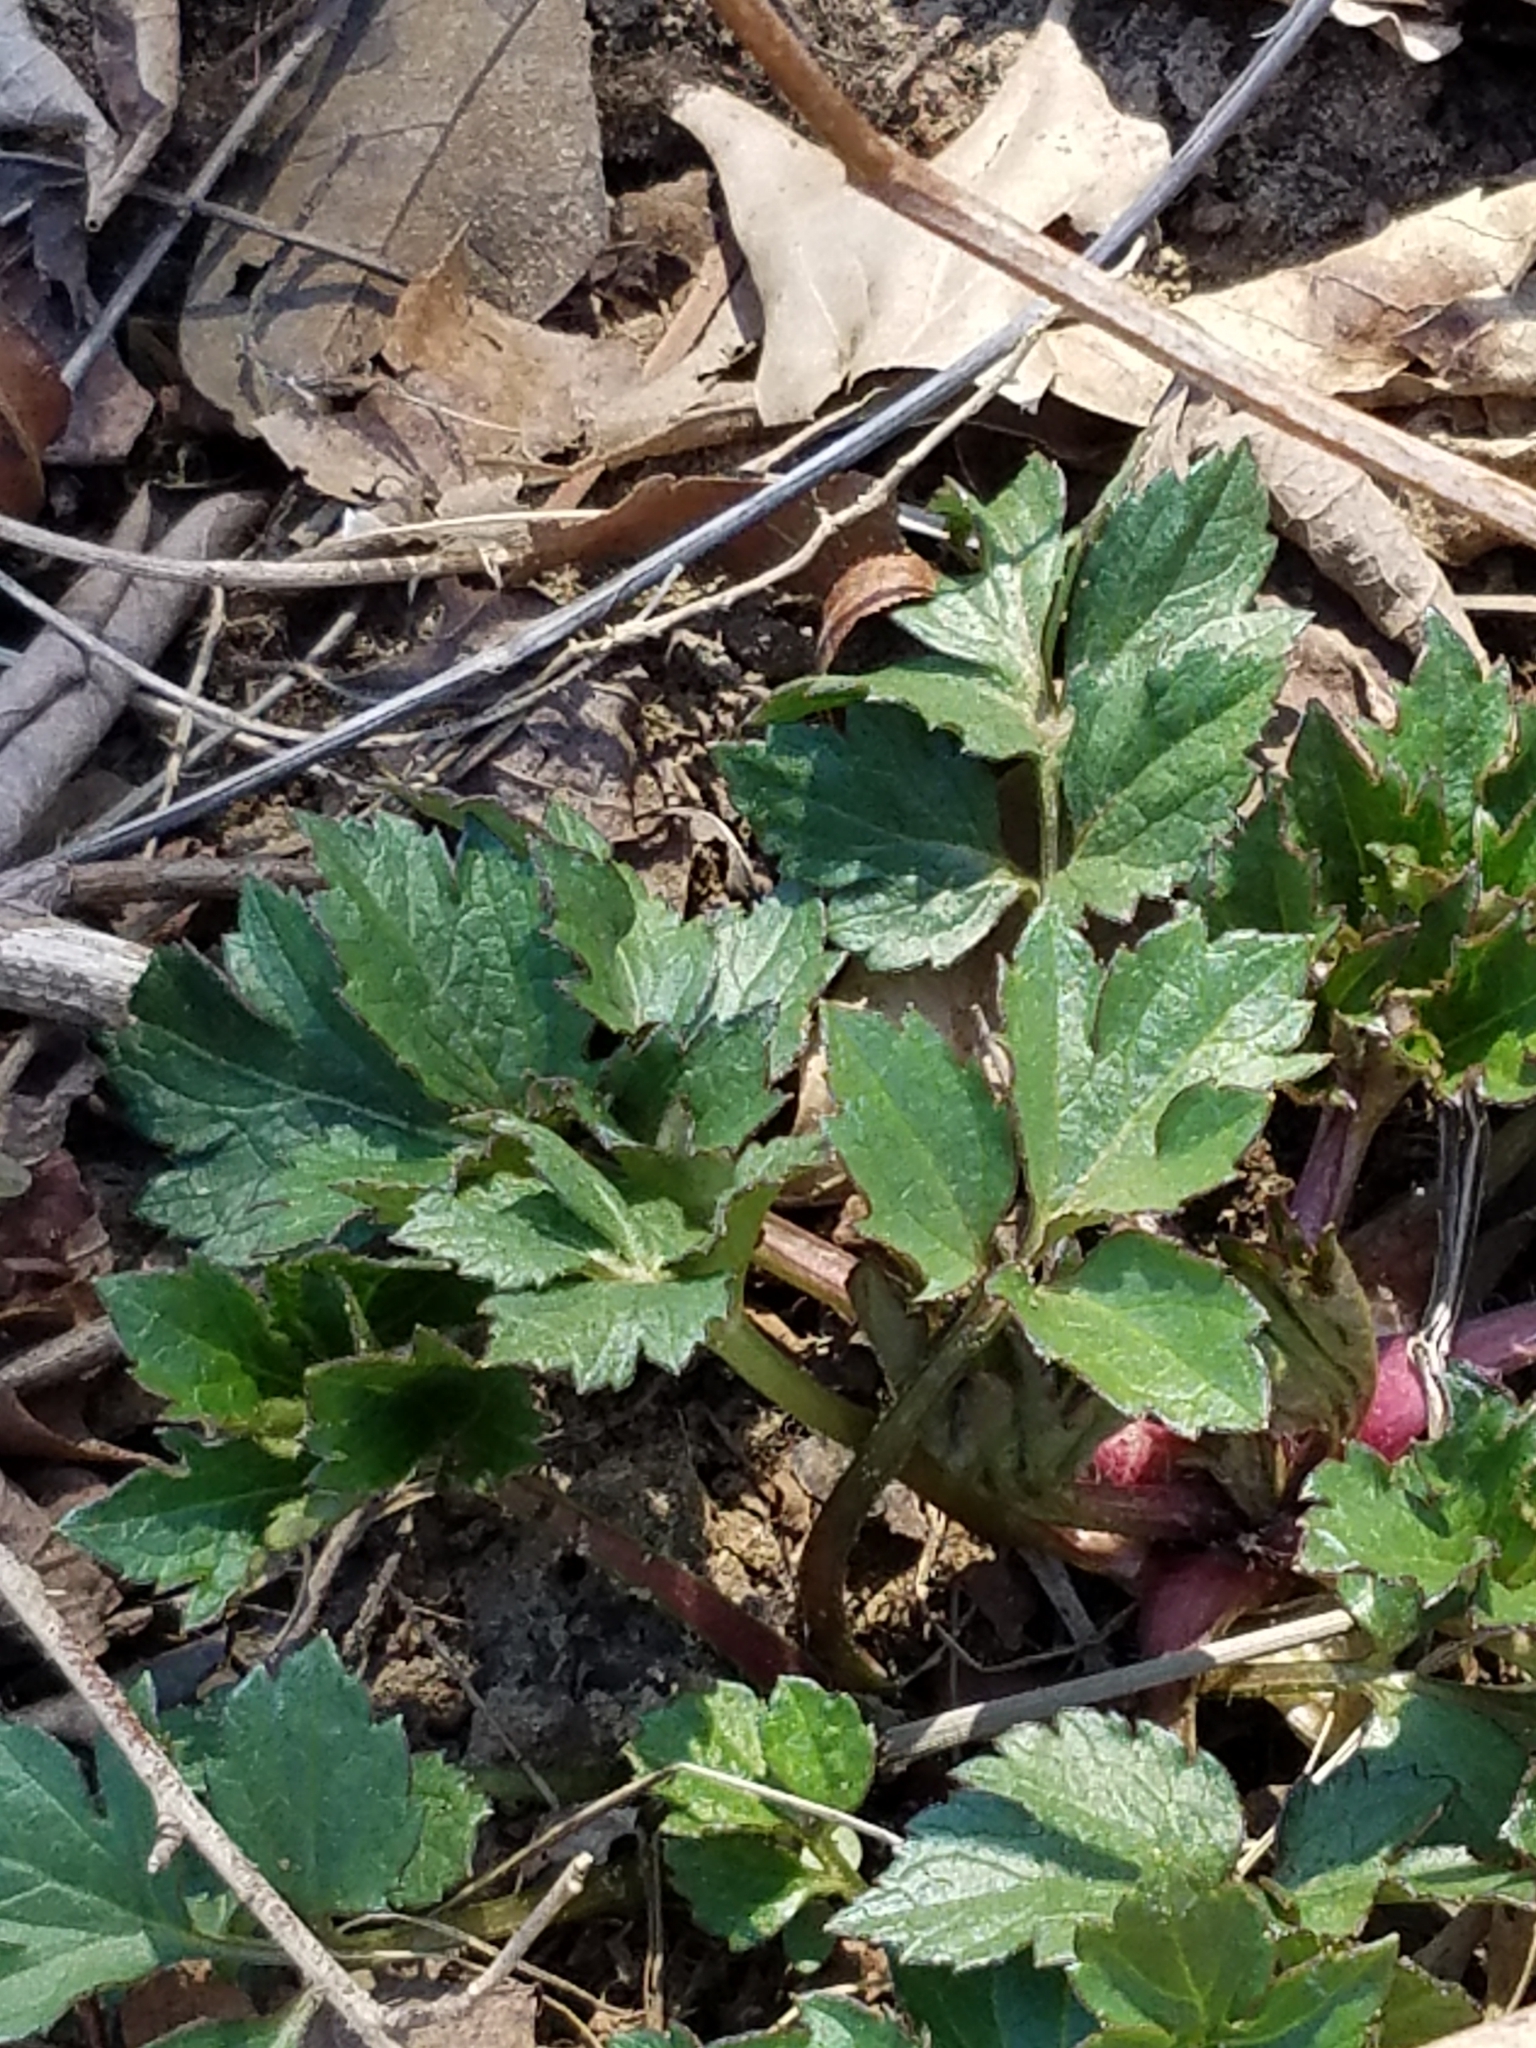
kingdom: Plantae
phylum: Tracheophyta
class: Magnoliopsida
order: Asterales
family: Asteraceae
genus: Rudbeckia
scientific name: Rudbeckia laciniata
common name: Coneflower
